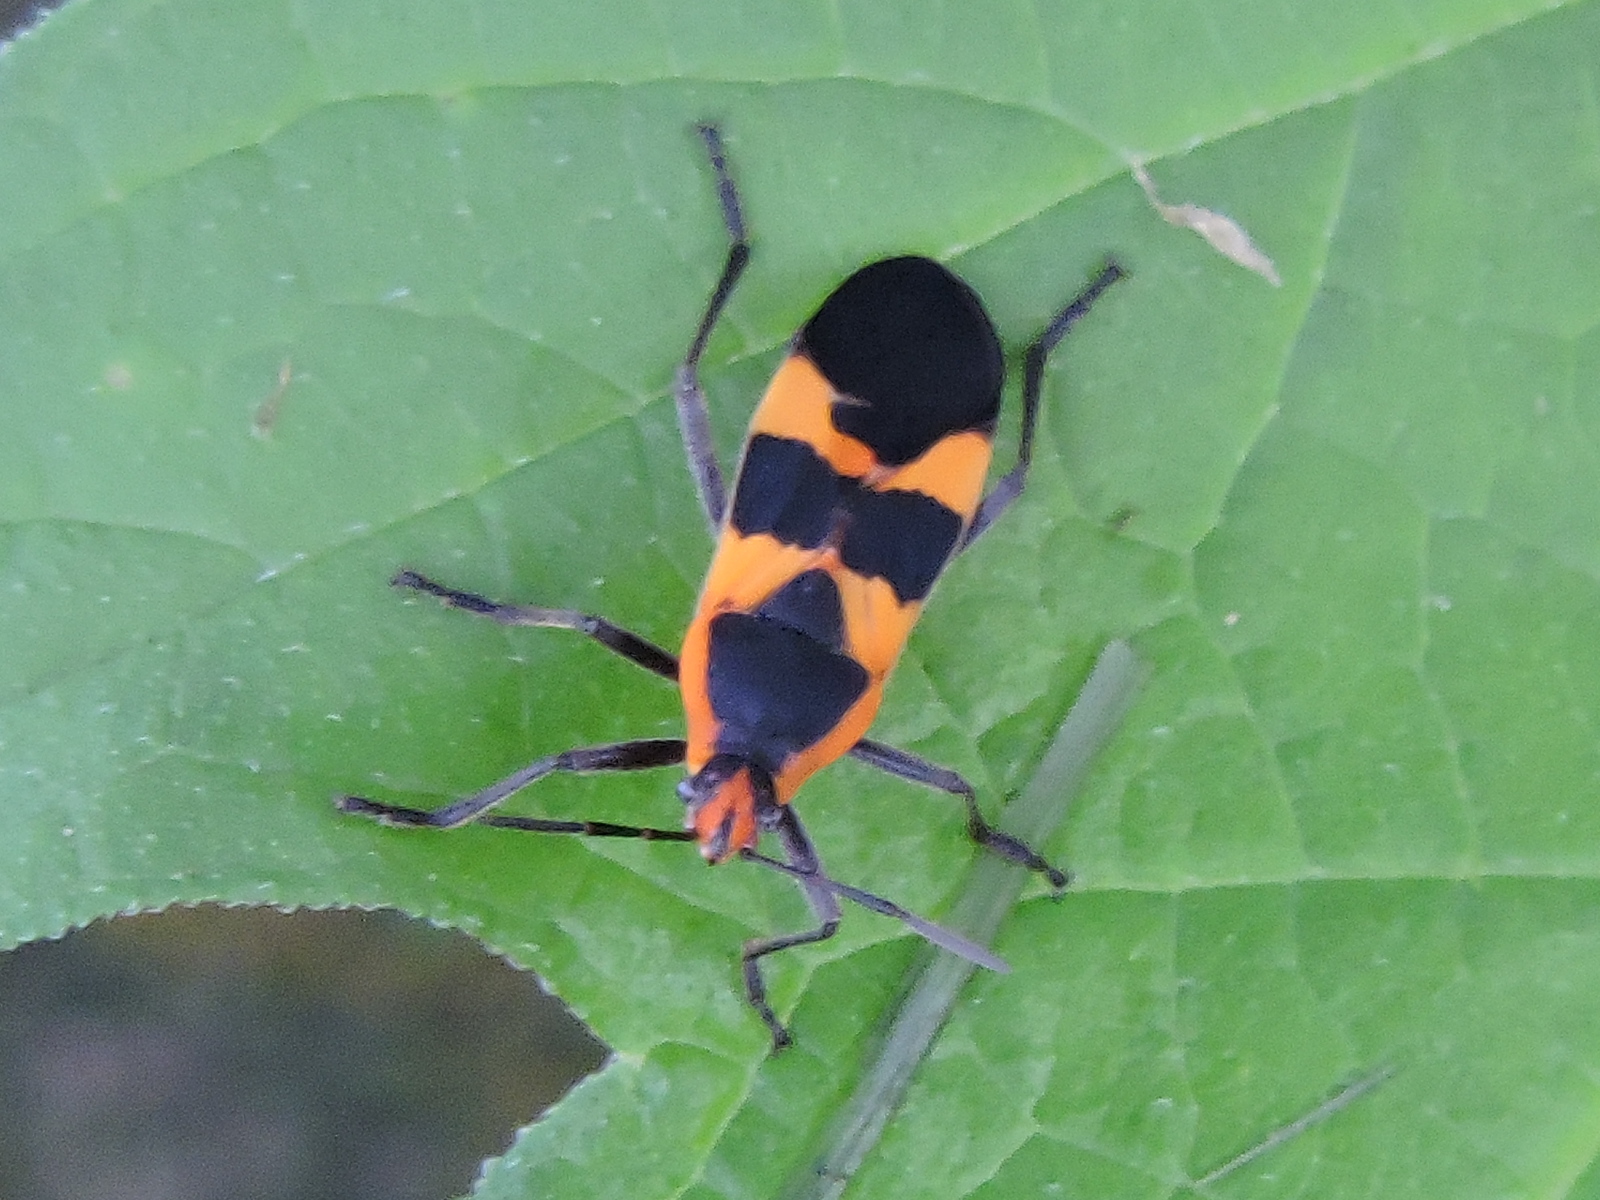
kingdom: Animalia
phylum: Arthropoda
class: Insecta
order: Hemiptera
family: Lygaeidae
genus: Oncopeltus
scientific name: Oncopeltus fasciatus
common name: Large milkweed bug
